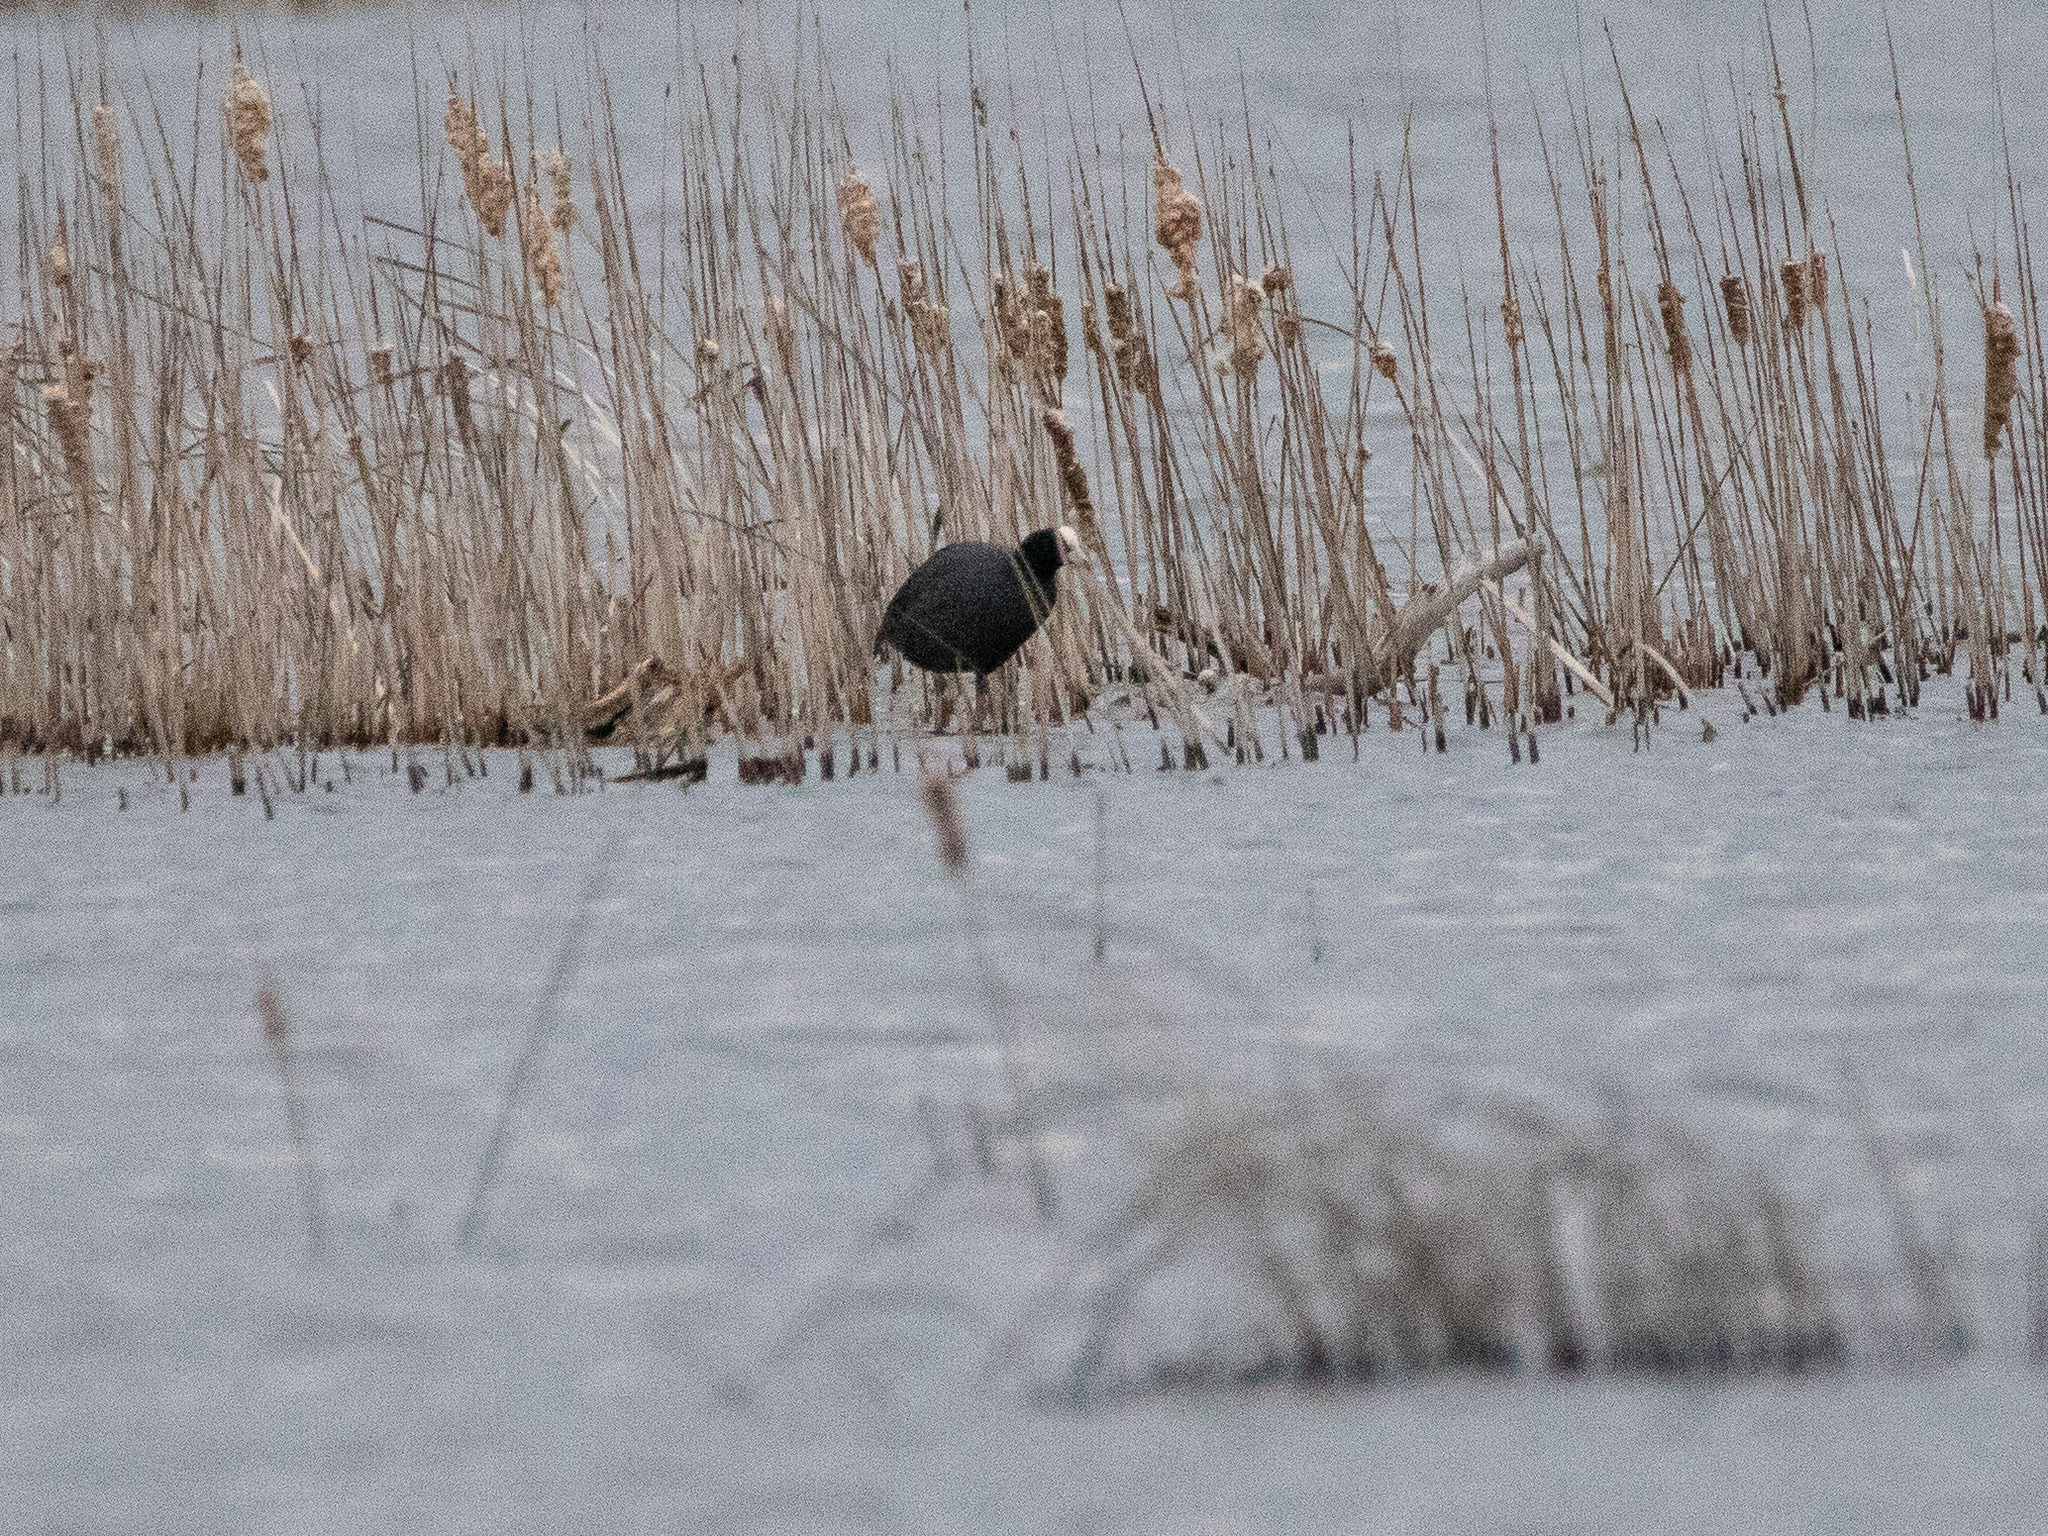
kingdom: Animalia
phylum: Chordata
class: Aves
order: Gruiformes
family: Rallidae
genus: Fulica
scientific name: Fulica atra
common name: Eurasian coot
